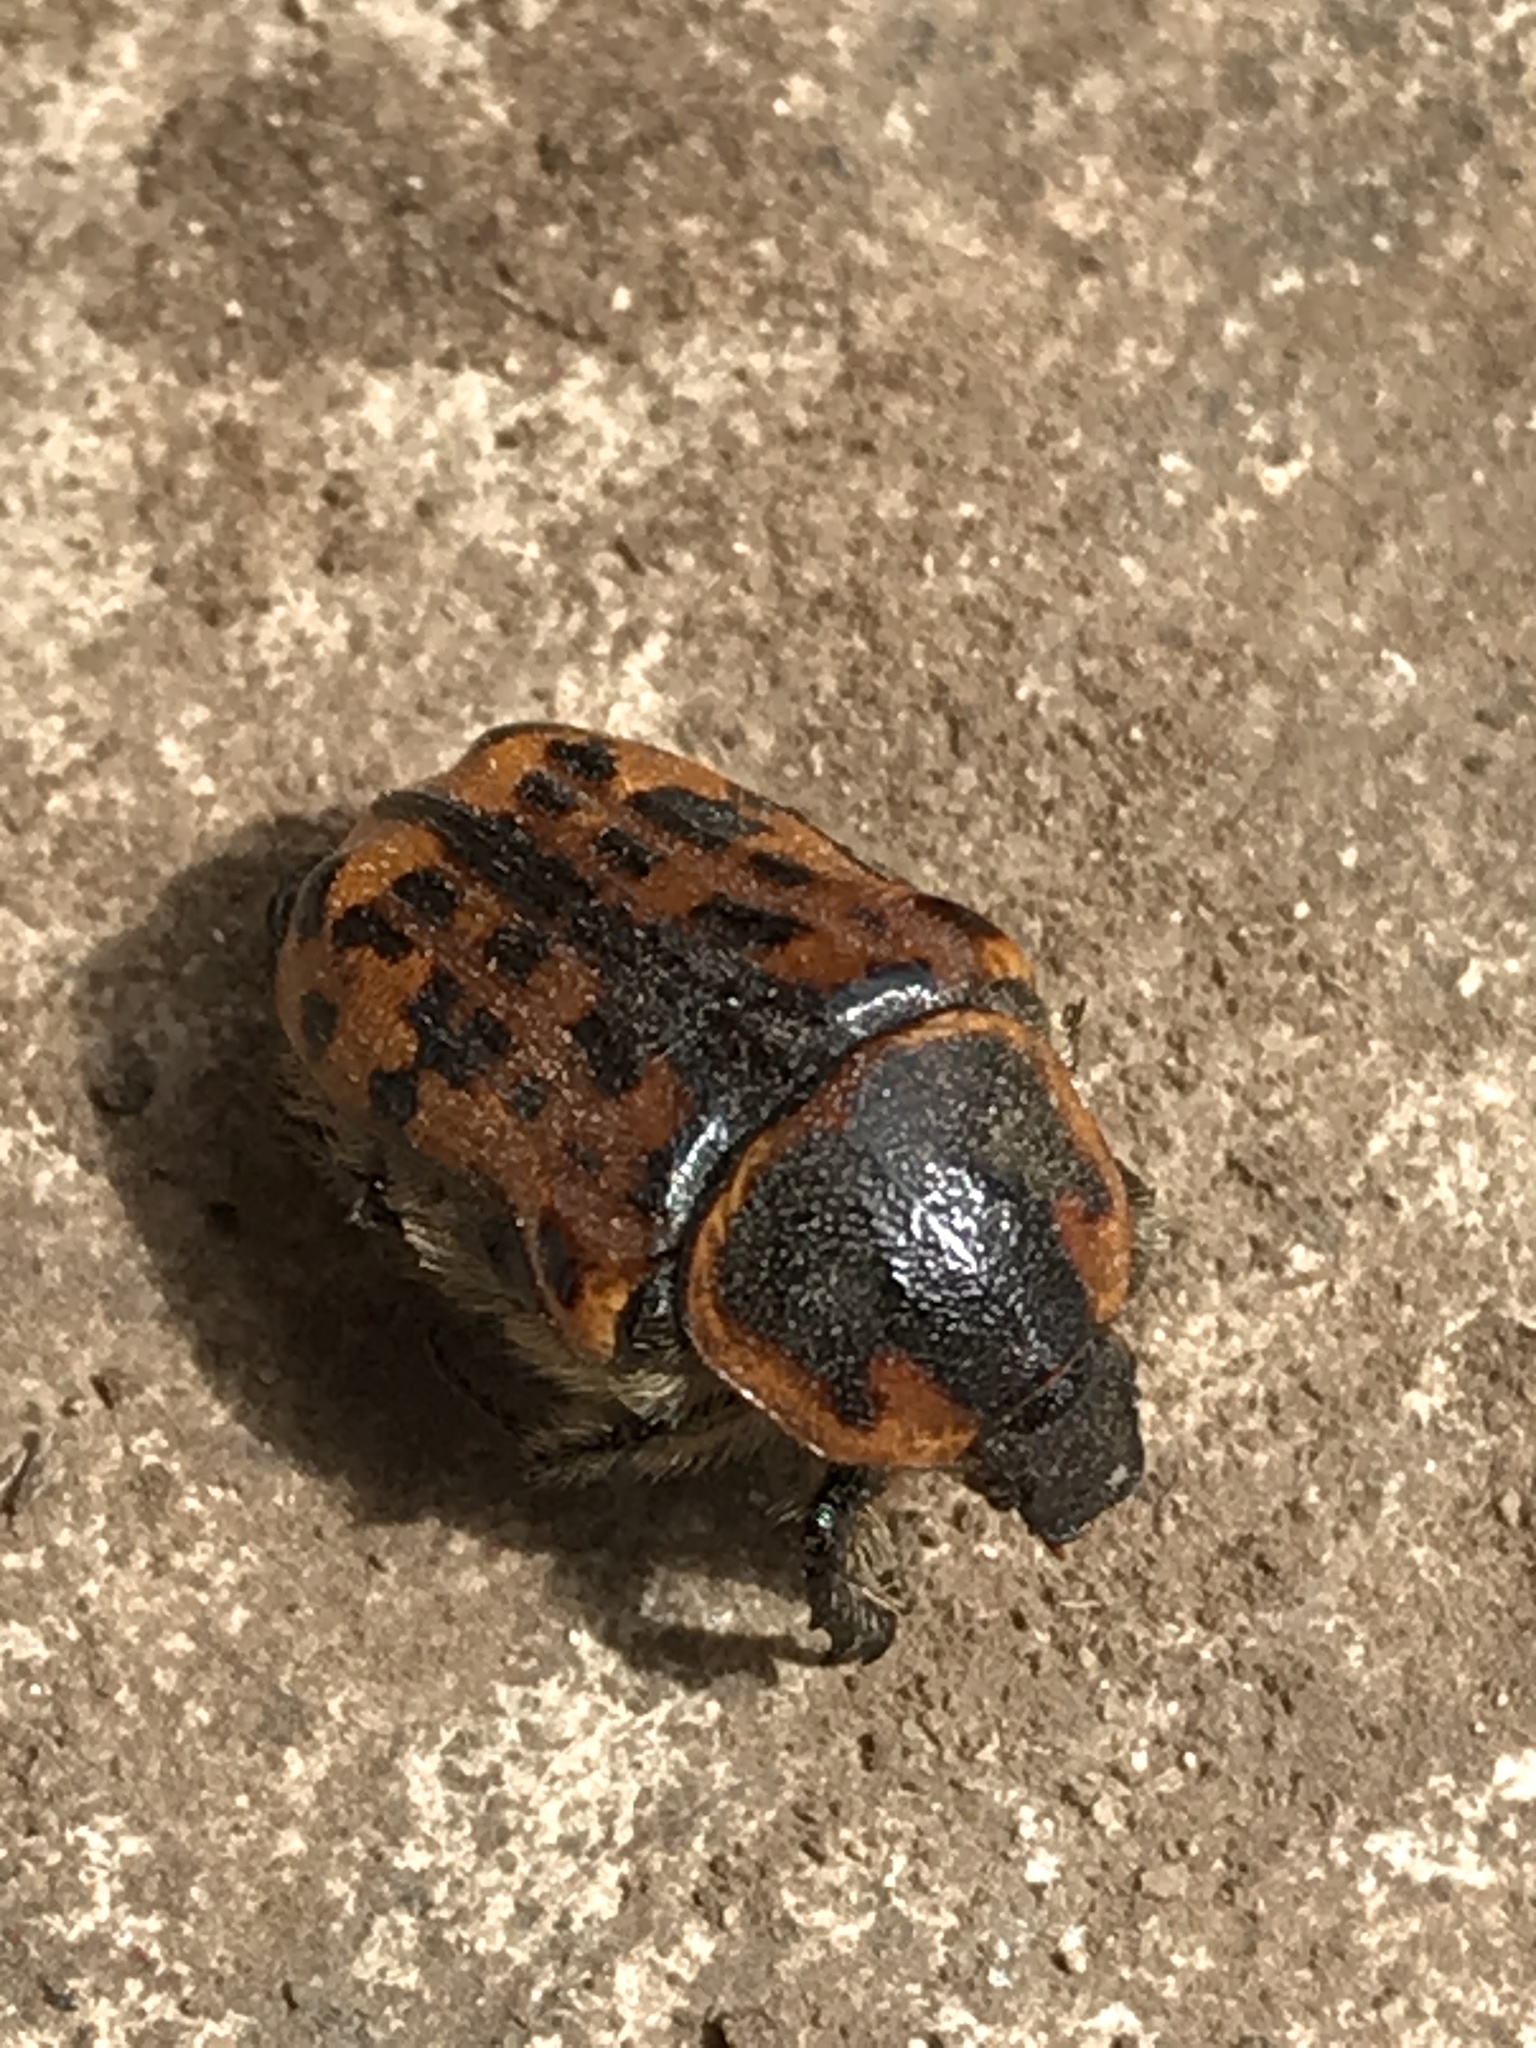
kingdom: Animalia
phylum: Arthropoda
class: Insecta
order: Coleoptera
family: Scarabaeidae
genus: Euphoria
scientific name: Euphoria kernii
